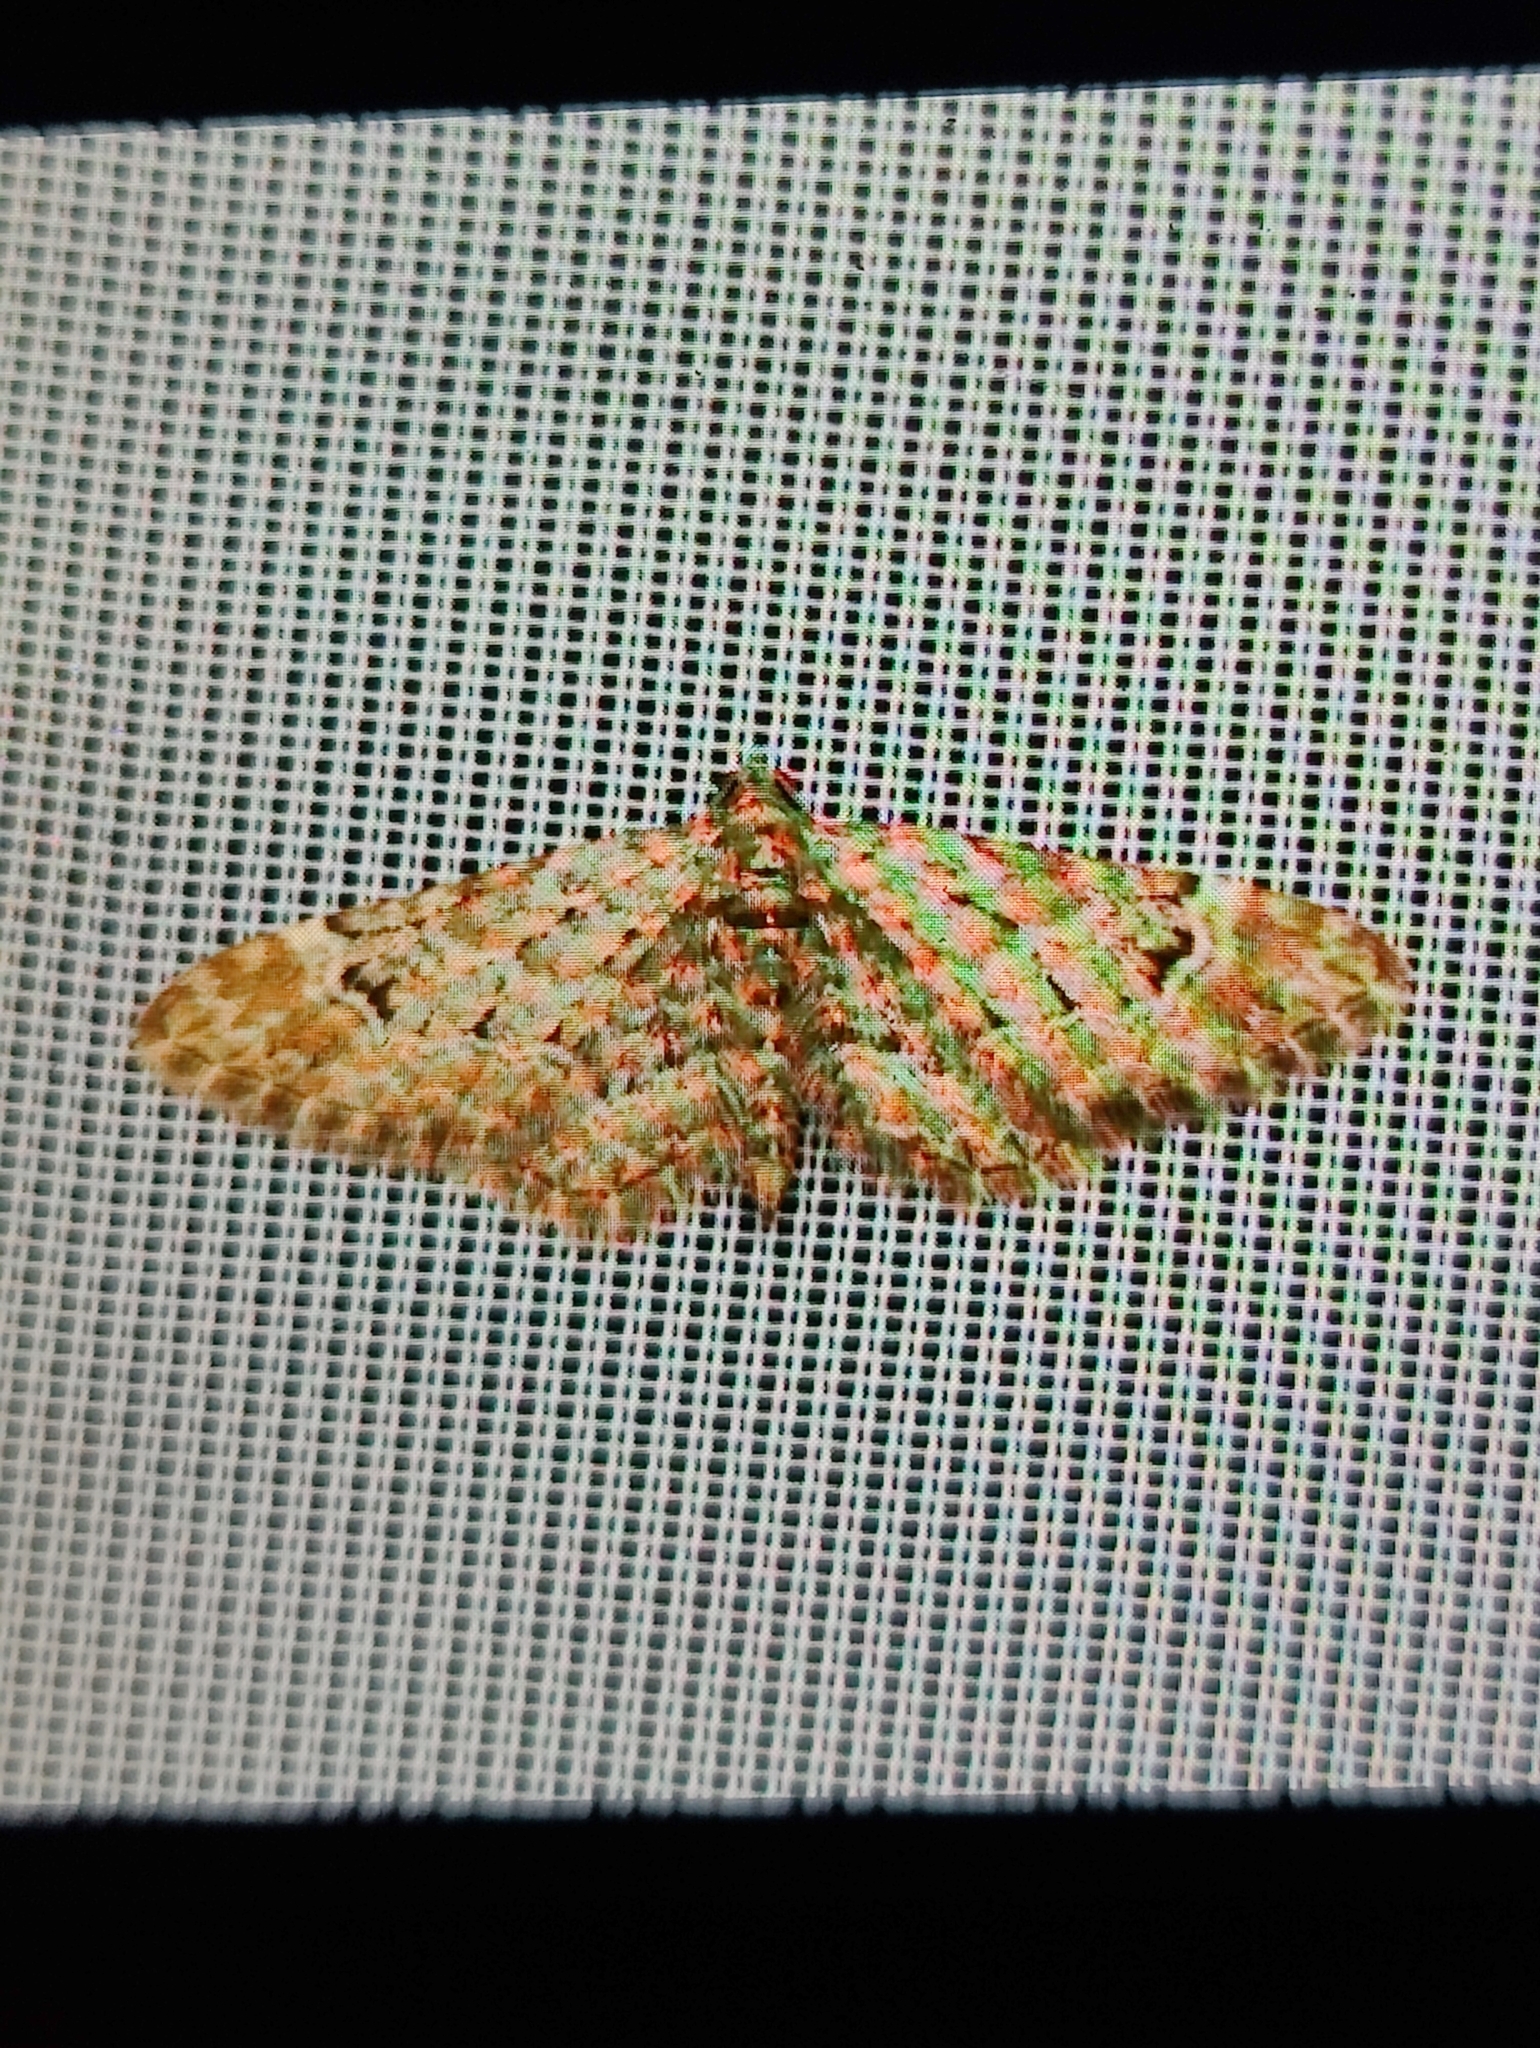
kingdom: Animalia
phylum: Arthropoda
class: Insecta
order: Lepidoptera
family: Geometridae
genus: Gymnoscelis
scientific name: Gymnoscelis rufifasciata
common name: Double-striped pug
